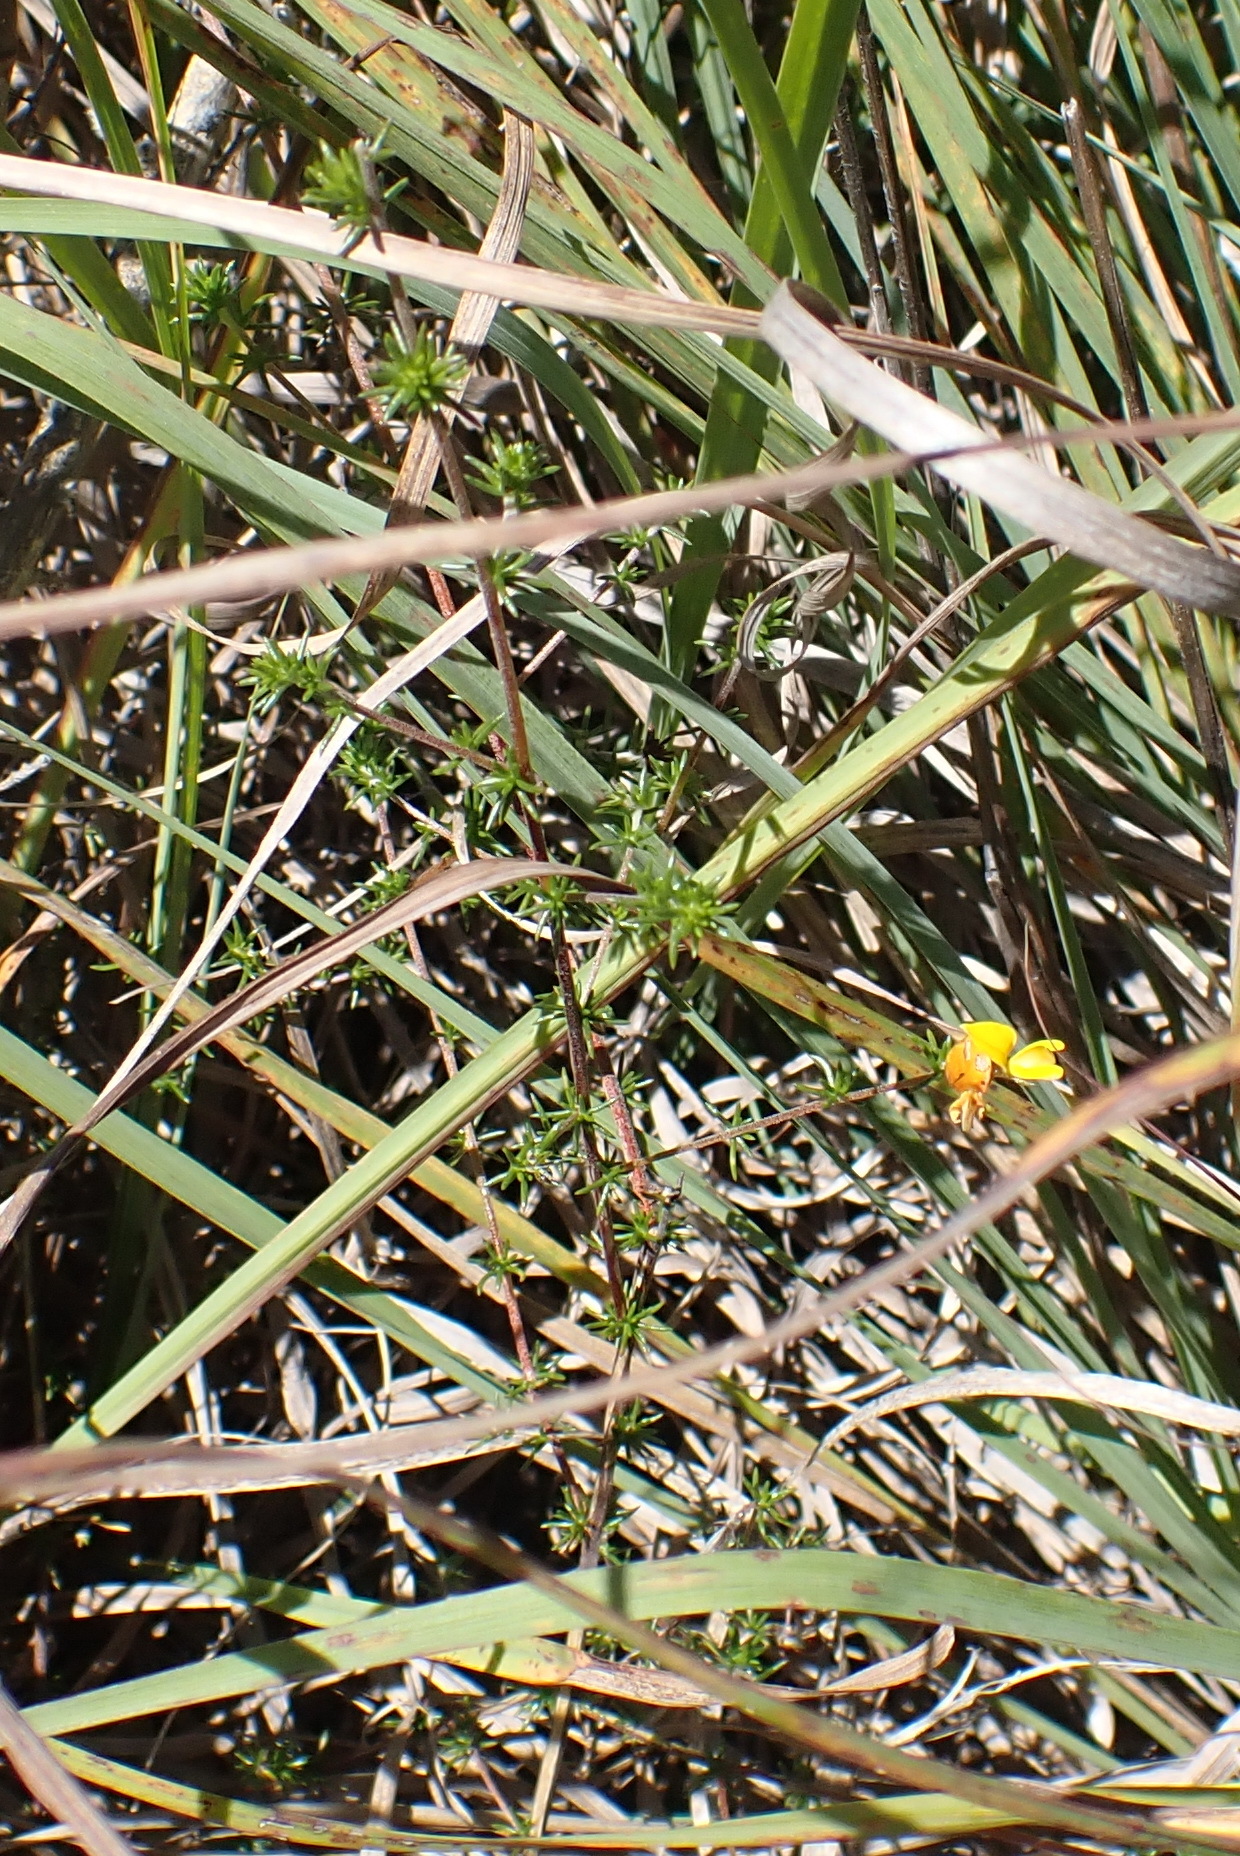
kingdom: Plantae
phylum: Tracheophyta
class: Magnoliopsida
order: Fabales
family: Fabaceae
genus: Aspalathus
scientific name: Aspalathus rubens
